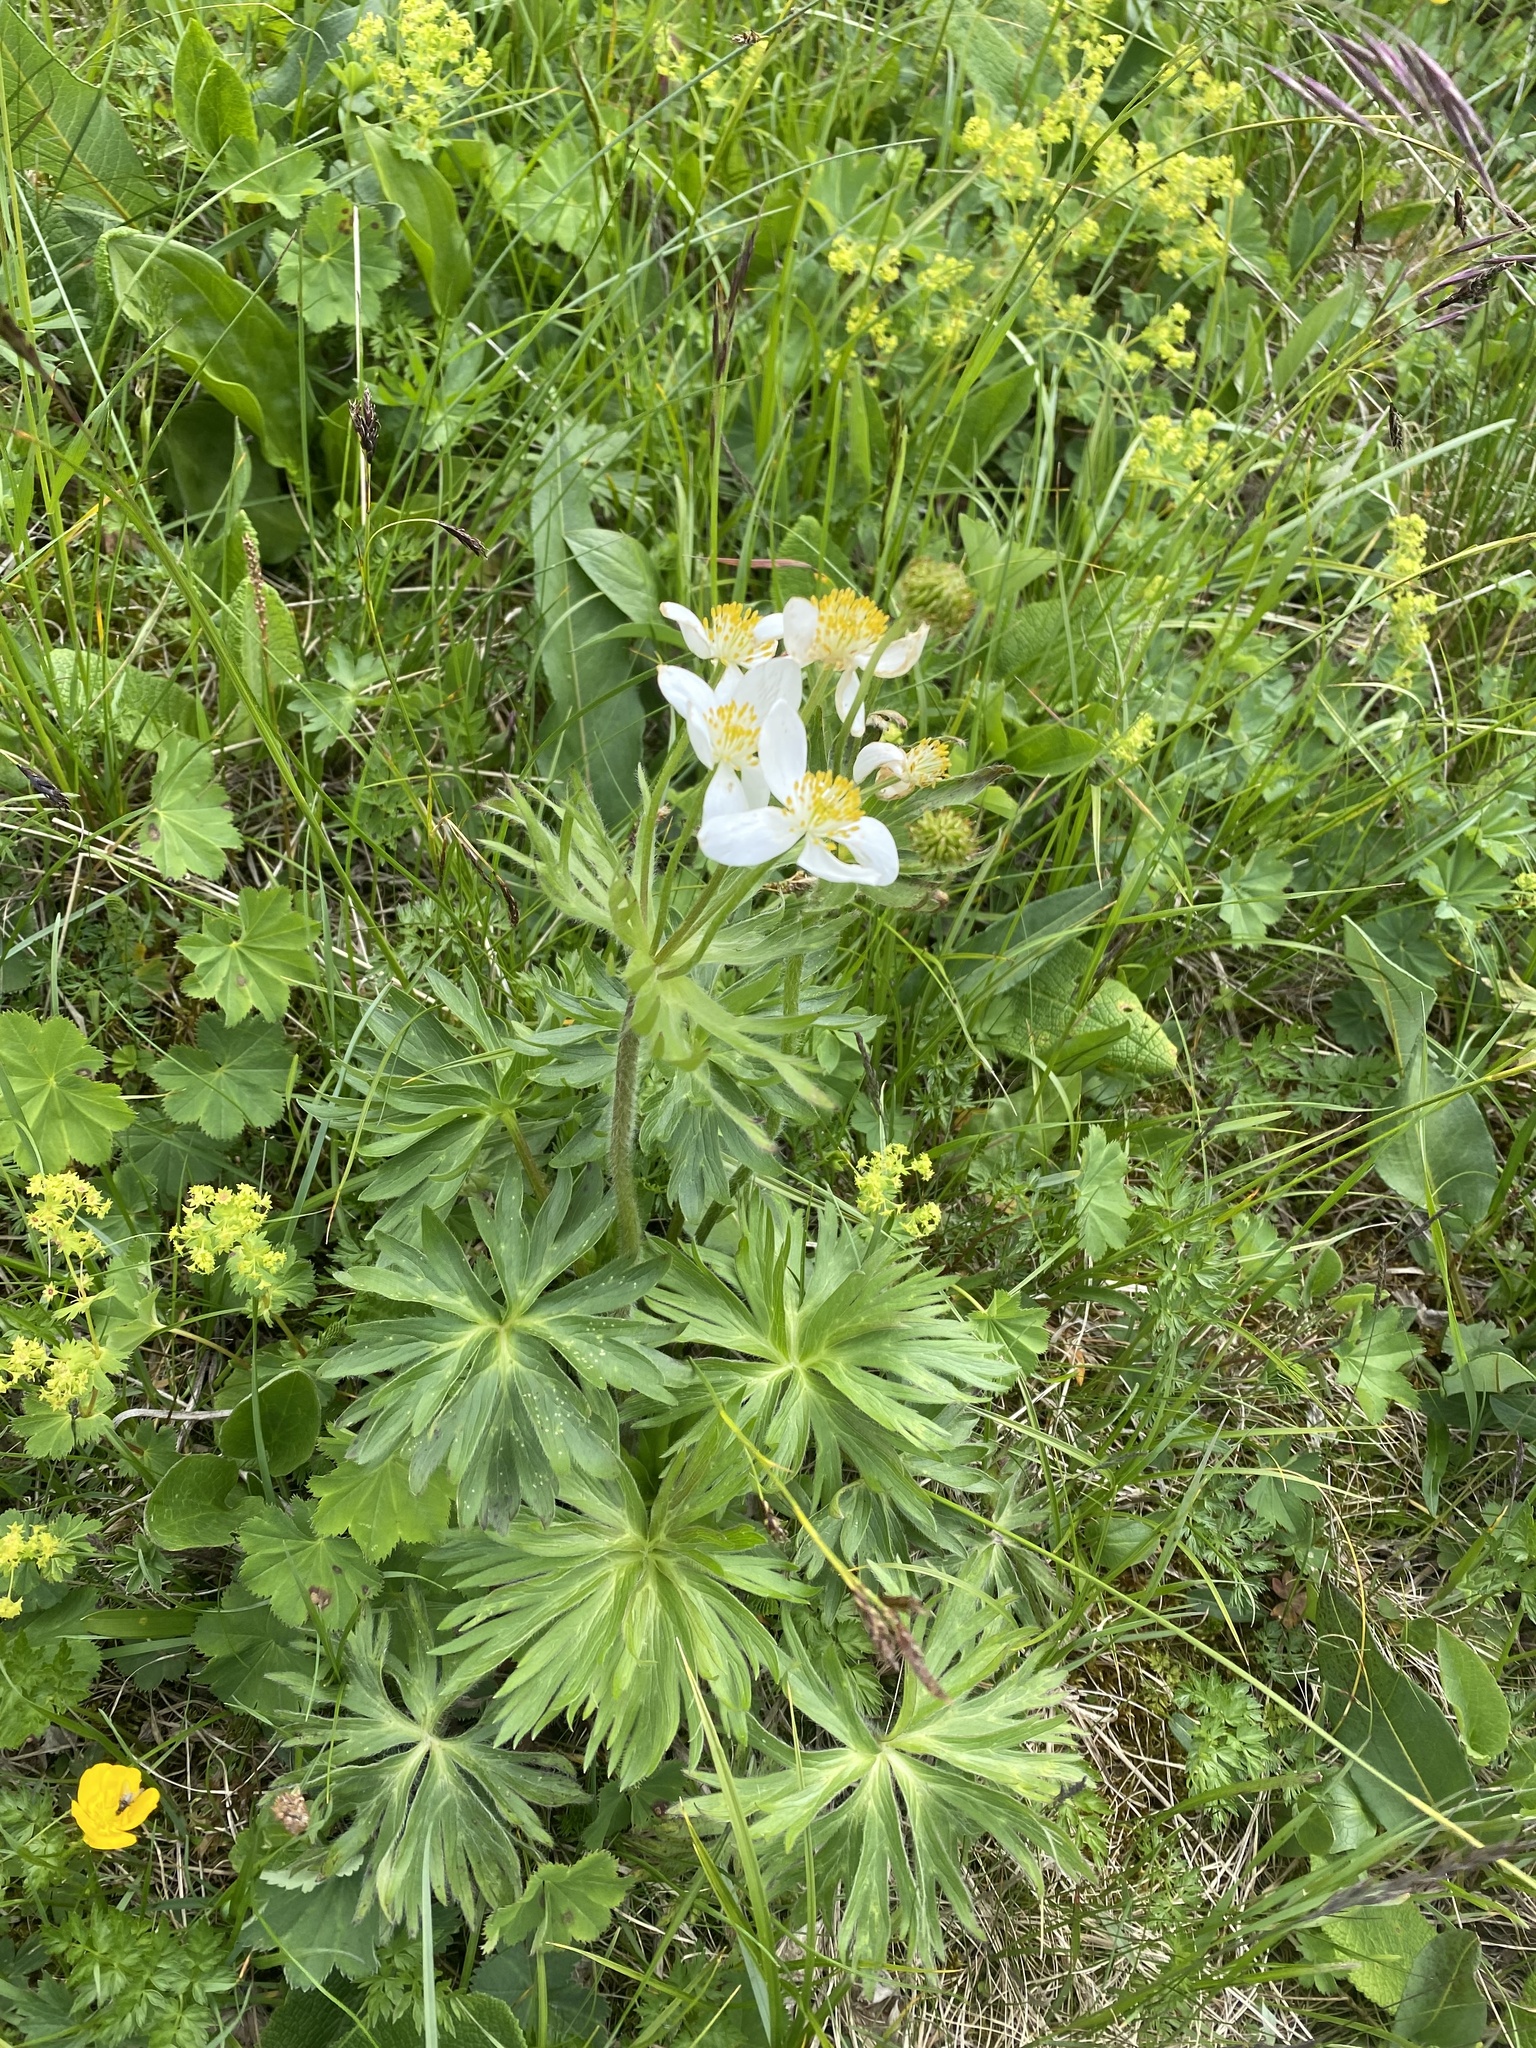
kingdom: Plantae
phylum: Tracheophyta
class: Magnoliopsida
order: Ranunculales
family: Ranunculaceae
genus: Anemonastrum
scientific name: Anemonastrum narcissiflorum
